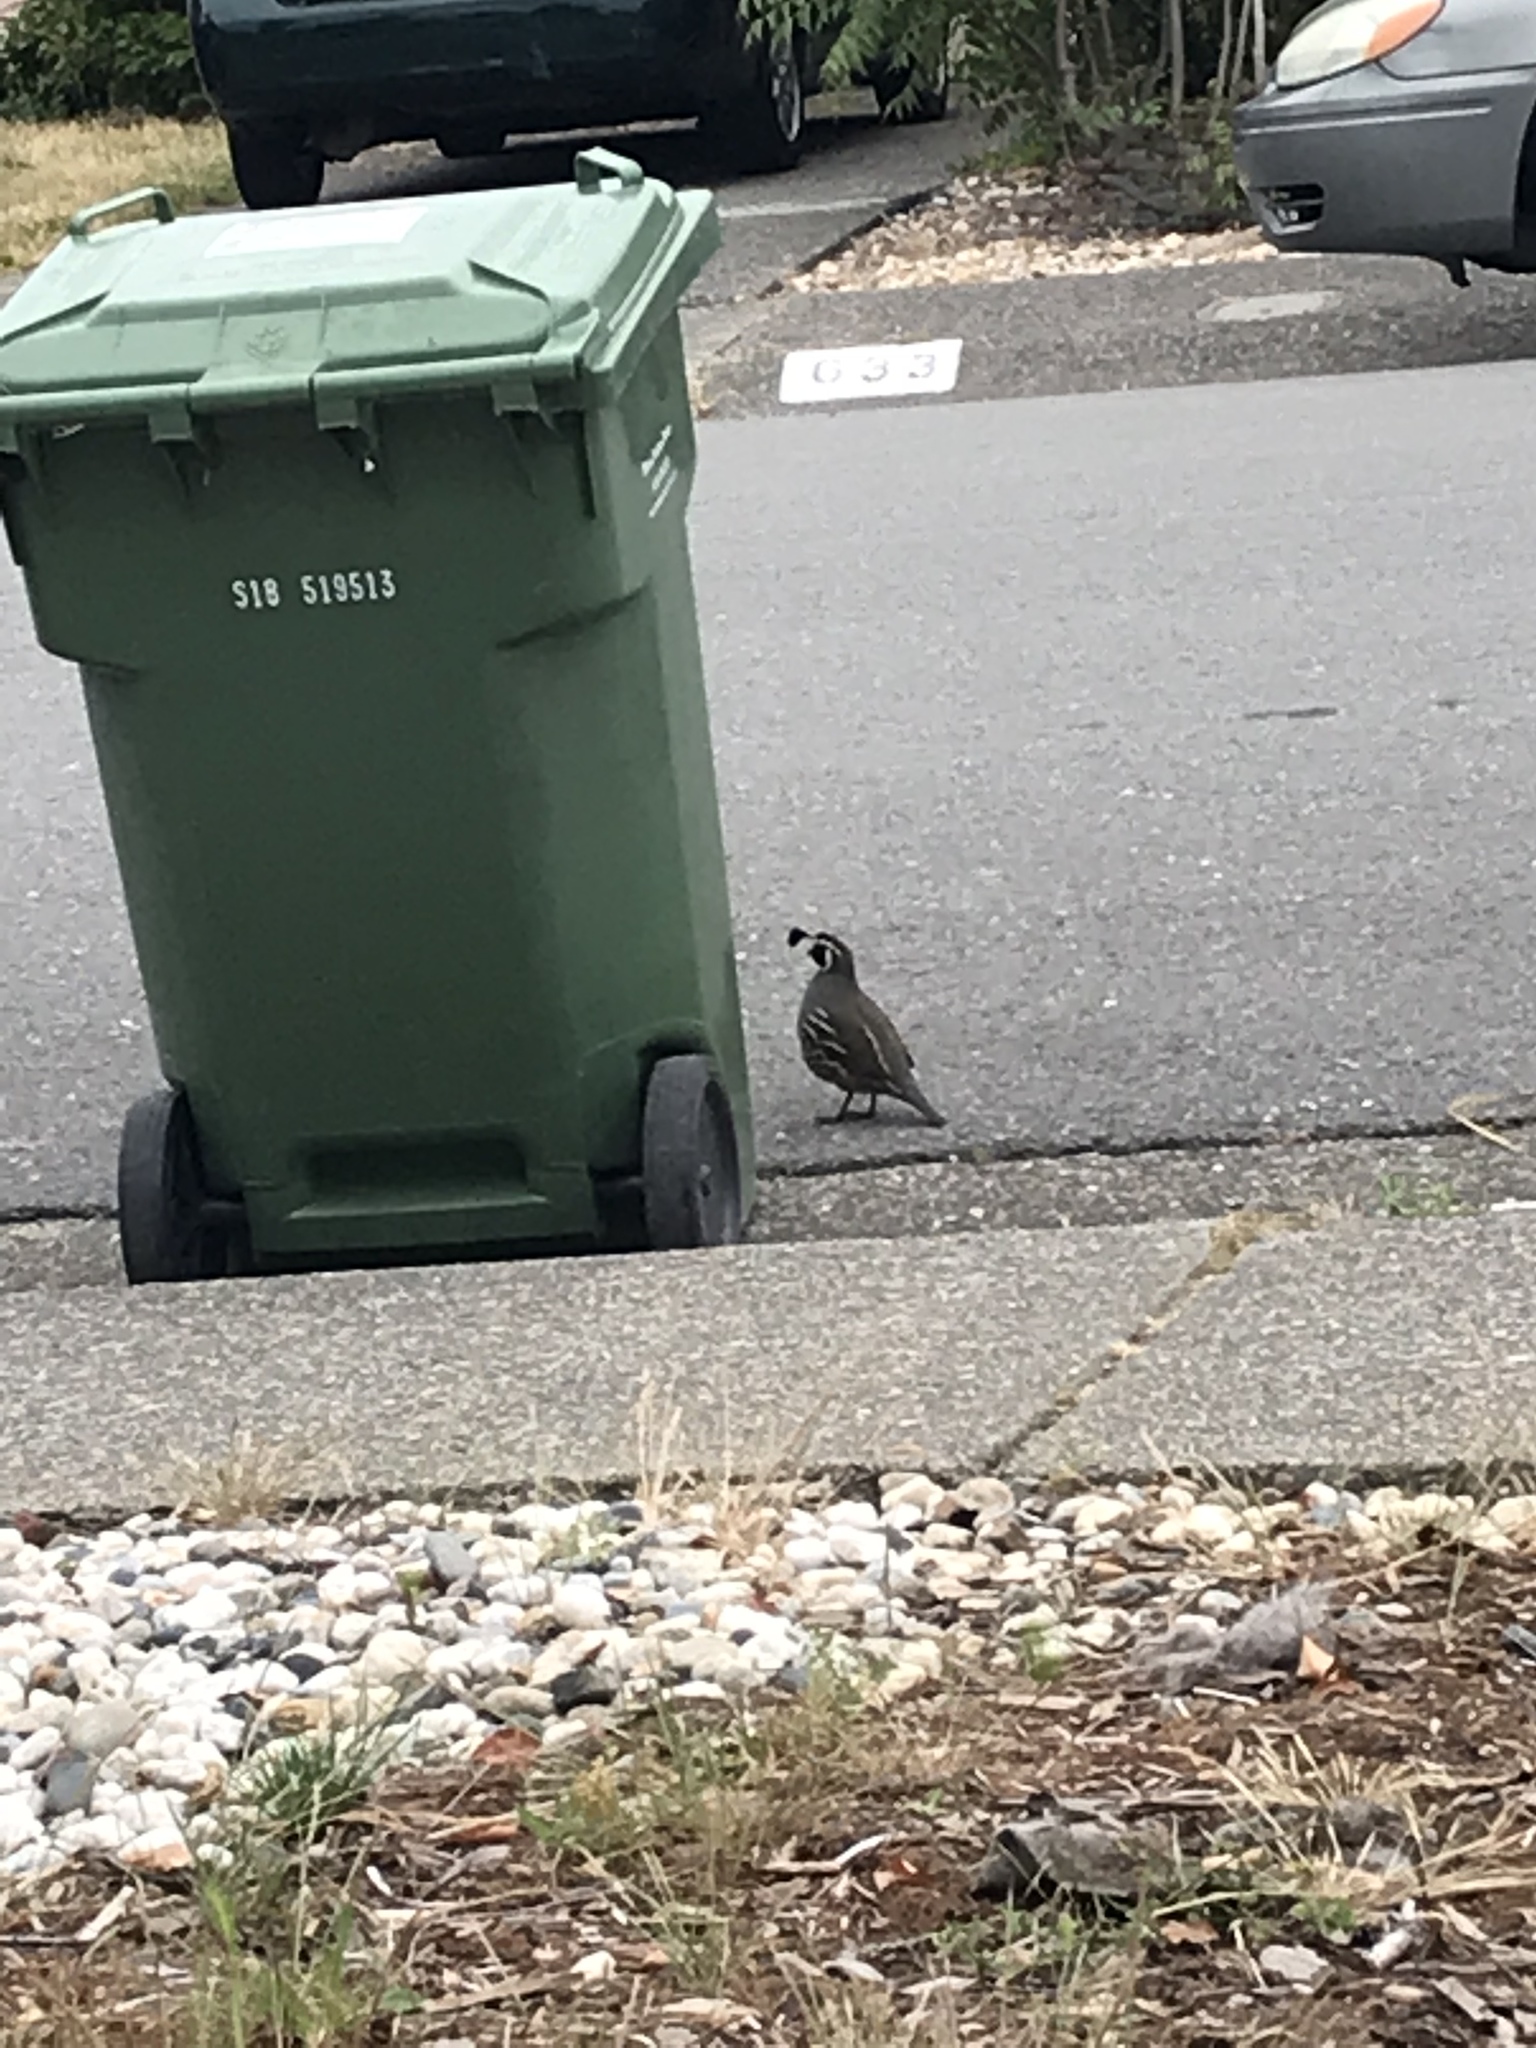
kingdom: Animalia
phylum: Chordata
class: Aves
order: Galliformes
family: Odontophoridae
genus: Callipepla
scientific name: Callipepla californica
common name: California quail
